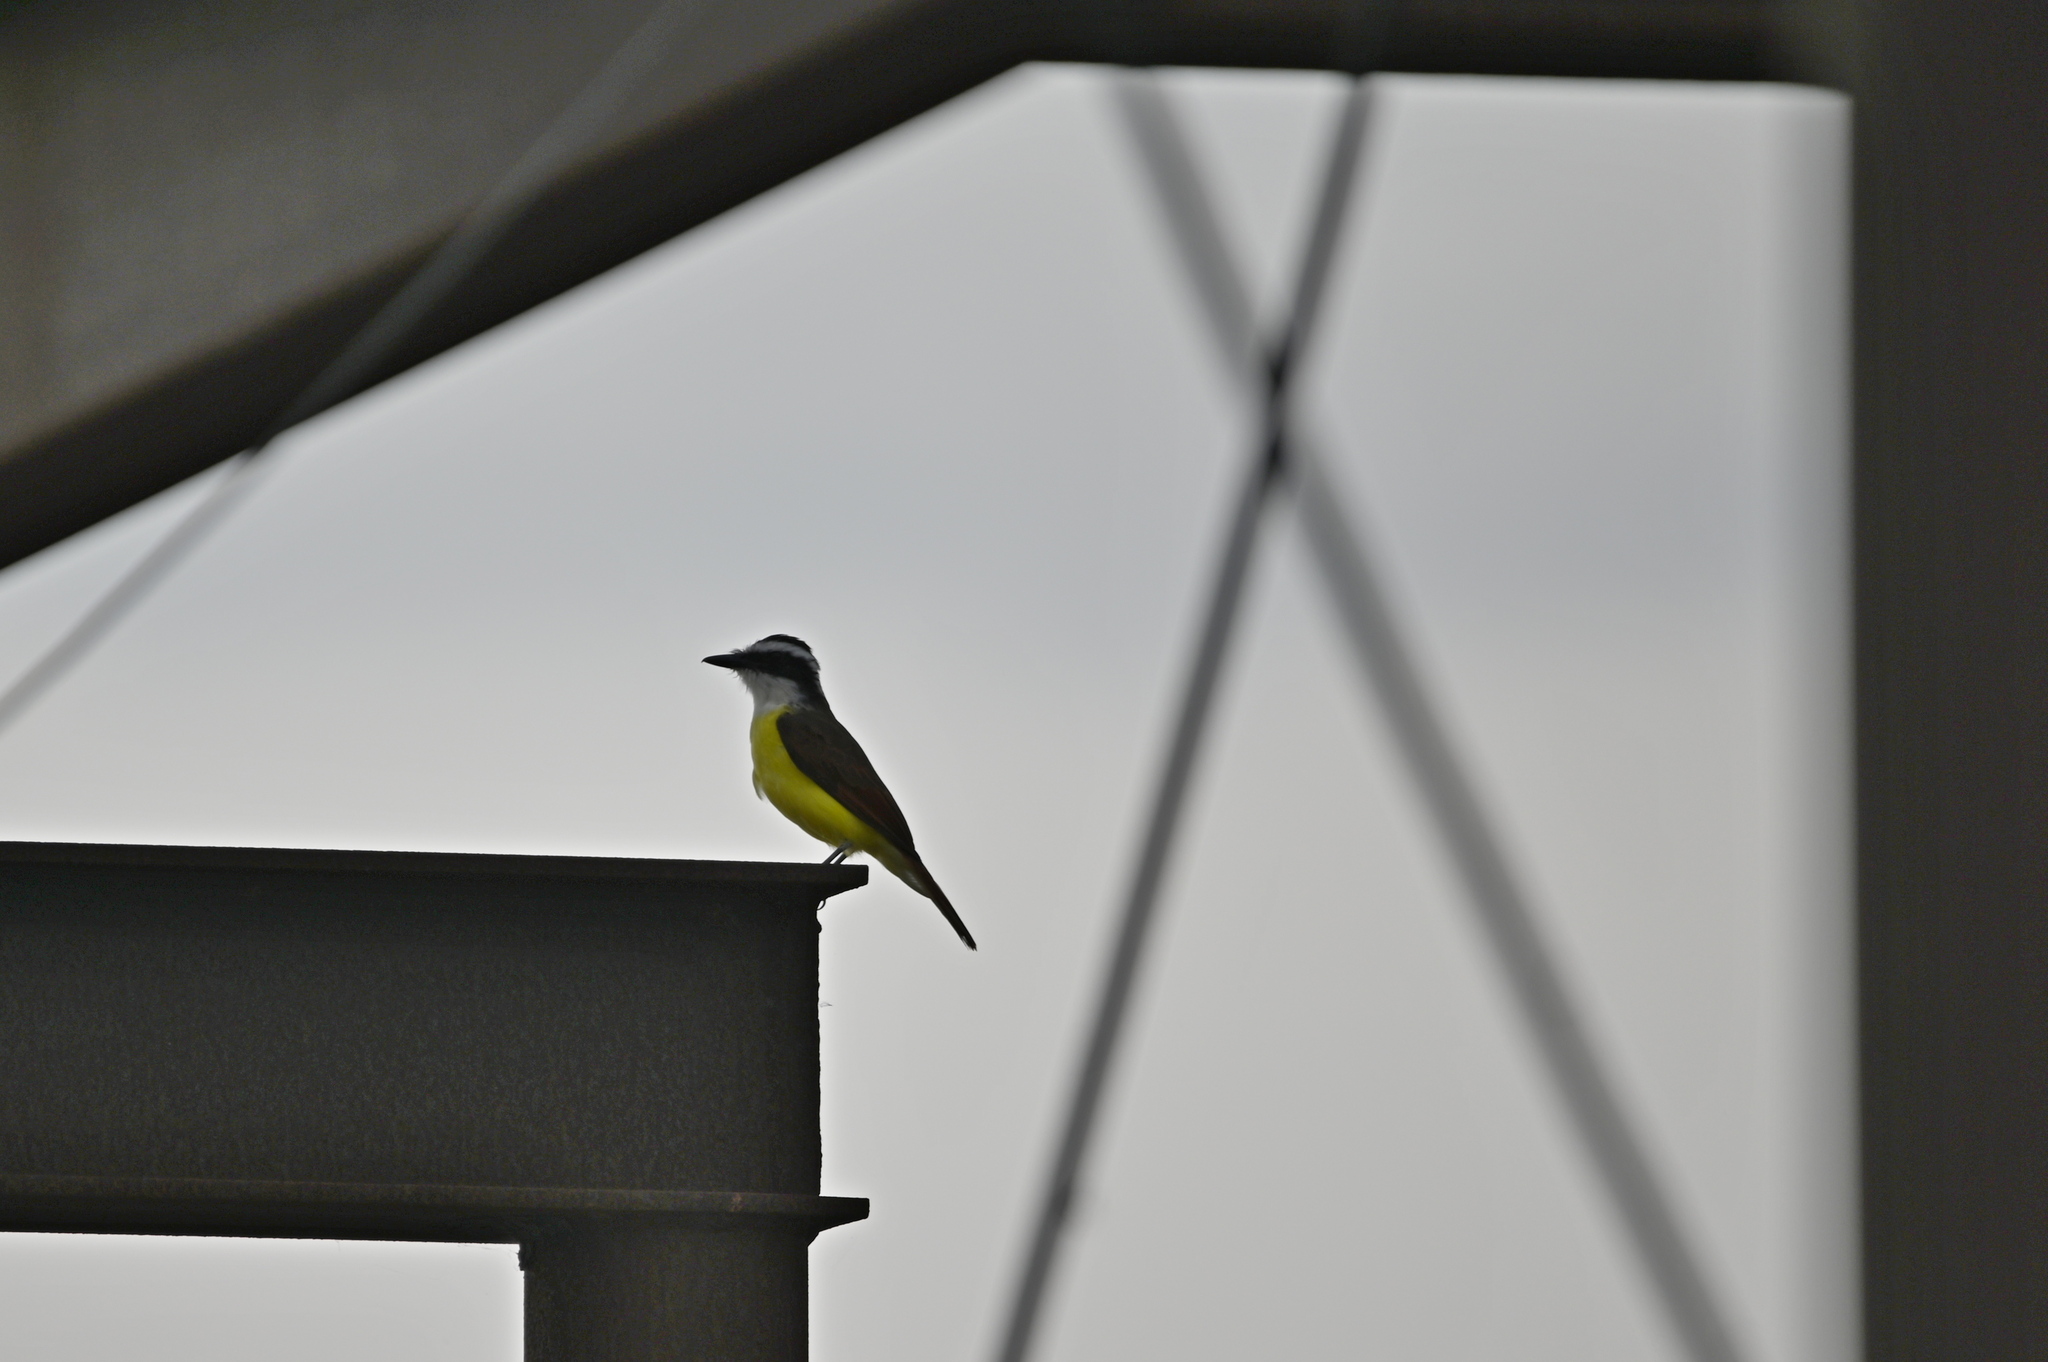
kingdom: Animalia
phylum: Chordata
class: Aves
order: Passeriformes
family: Tyrannidae
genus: Pitangus
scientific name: Pitangus sulphuratus
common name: Great kiskadee
